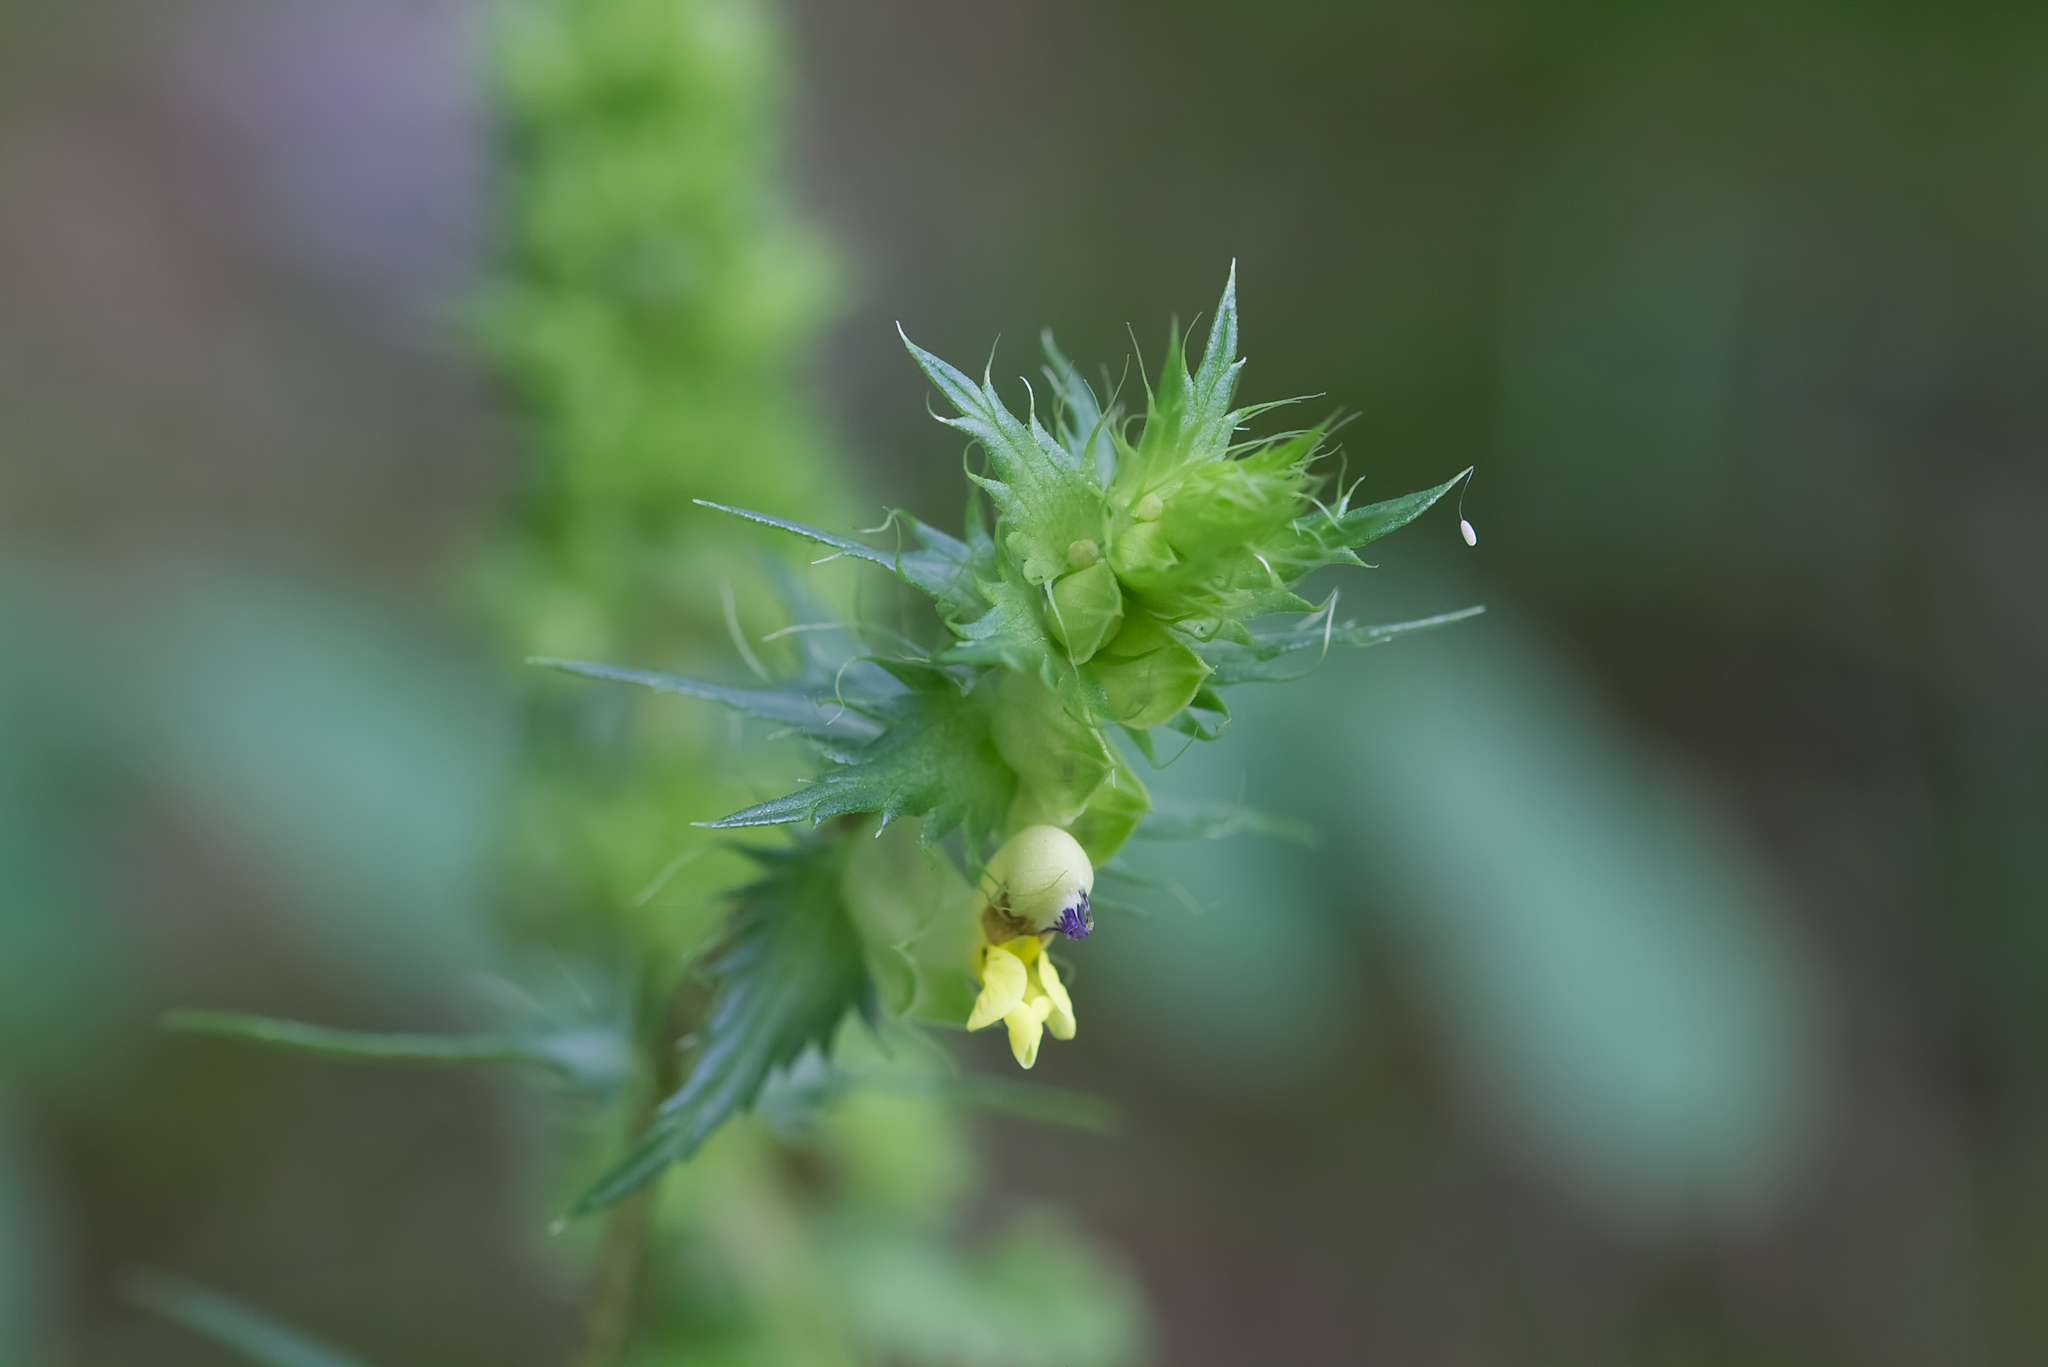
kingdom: Plantae
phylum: Tracheophyta
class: Magnoliopsida
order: Lamiales
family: Orobanchaceae
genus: Rhinanthus
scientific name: Rhinanthus glacialis
